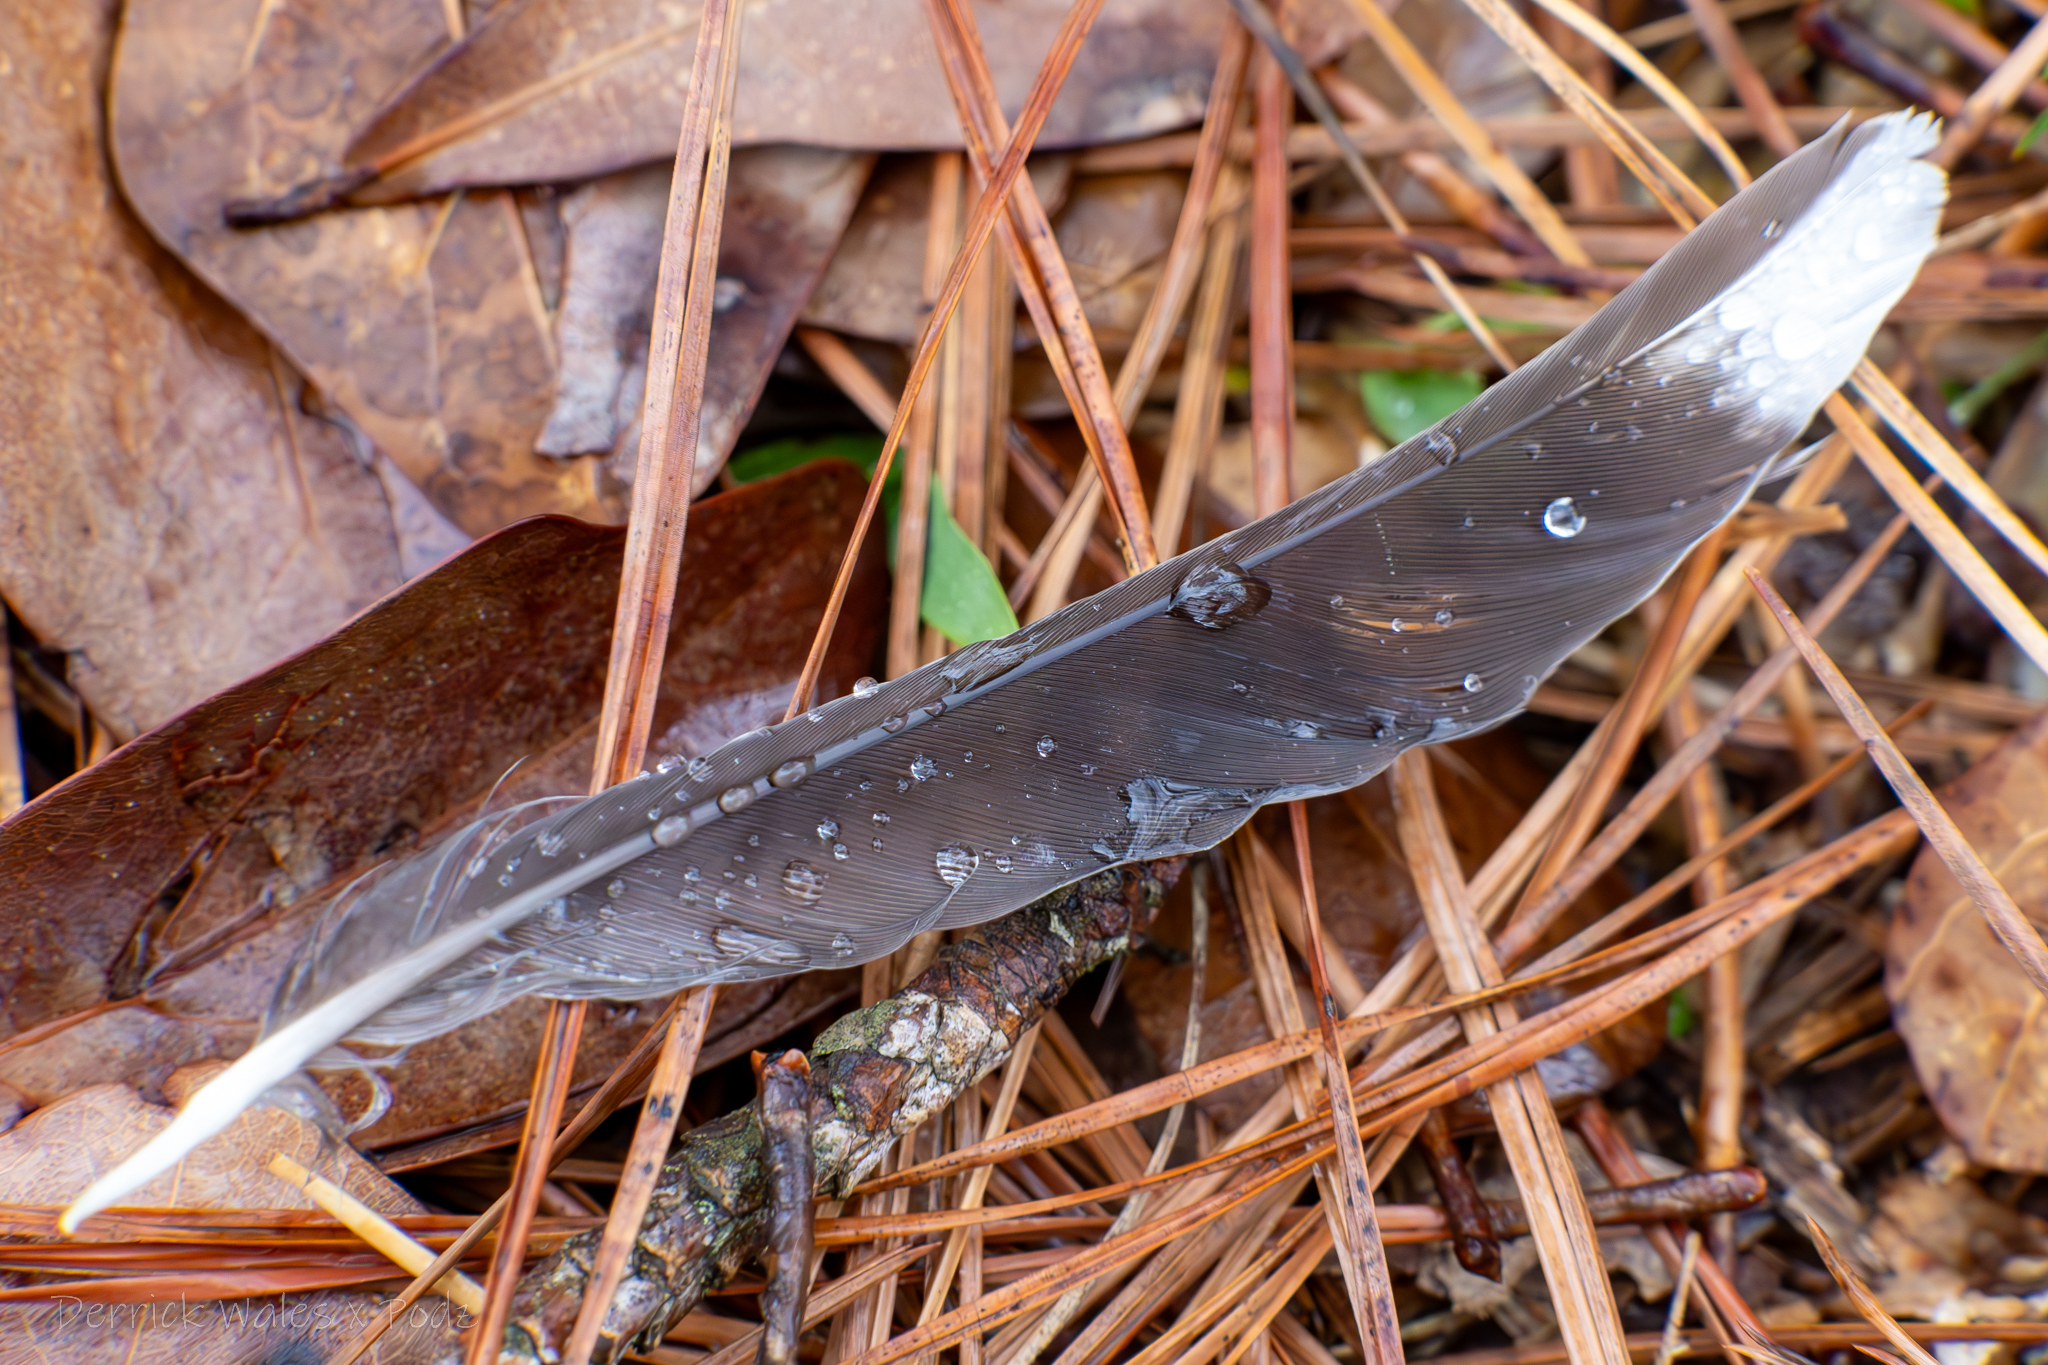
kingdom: Animalia
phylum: Chordata
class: Aves
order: Passeriformes
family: Turdidae
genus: Turdus
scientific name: Turdus migratorius
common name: American robin
